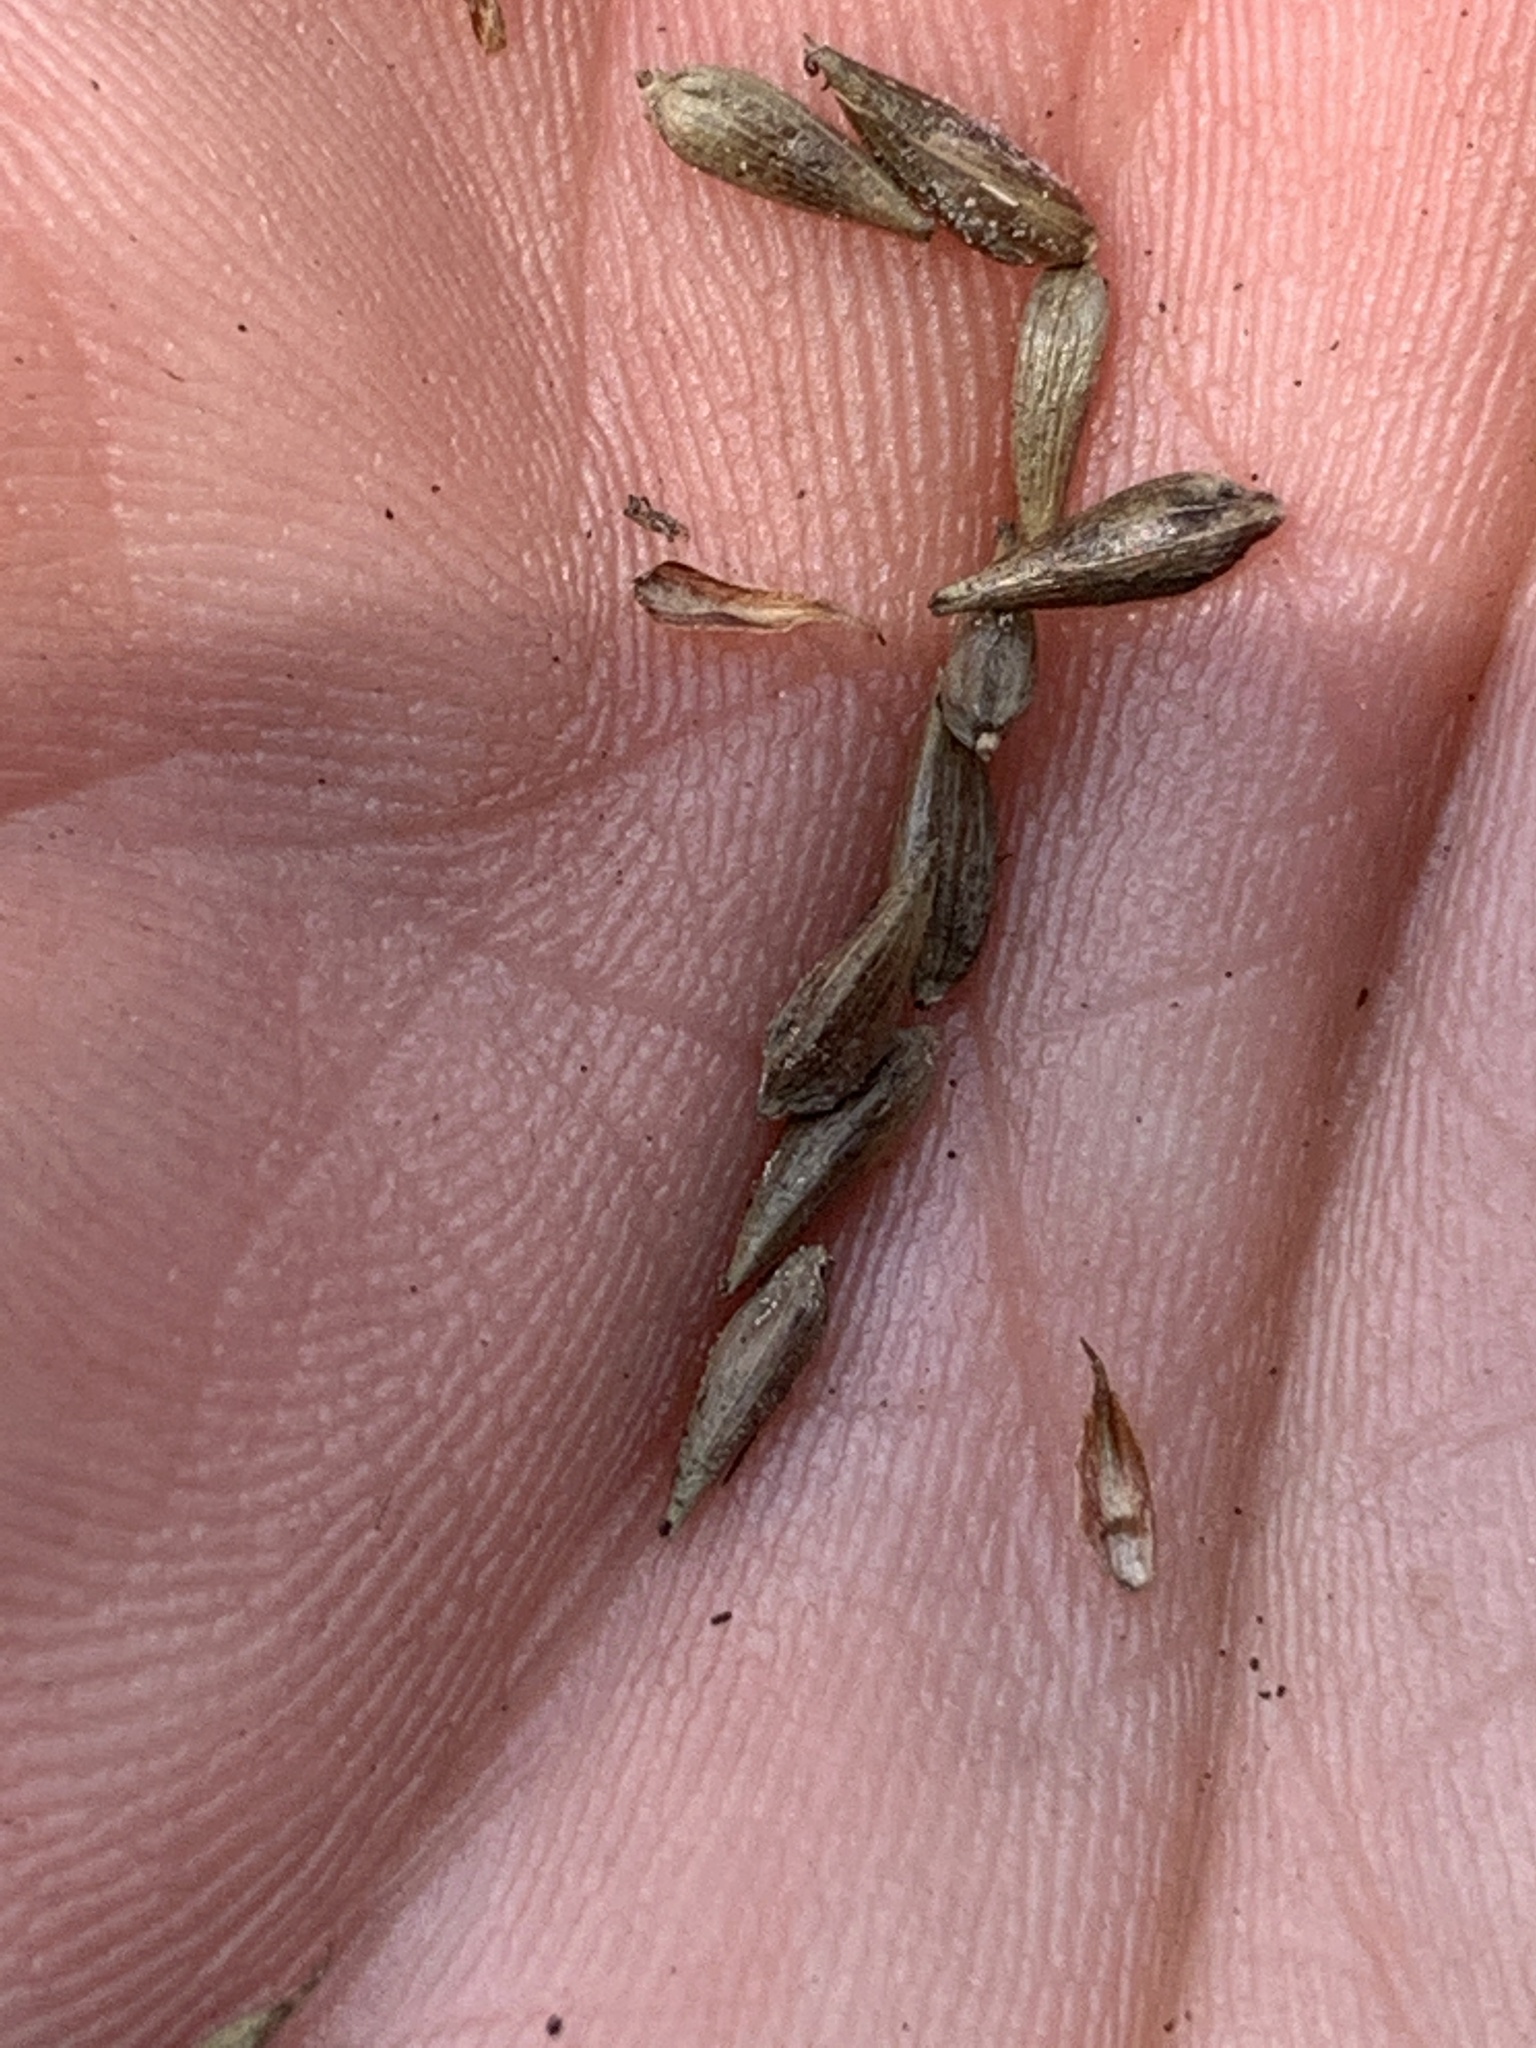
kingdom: Plantae
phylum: Tracheophyta
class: Liliopsida
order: Poales
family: Cyperaceae
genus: Carex
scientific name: Carex lacustris
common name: Common lake sedge
